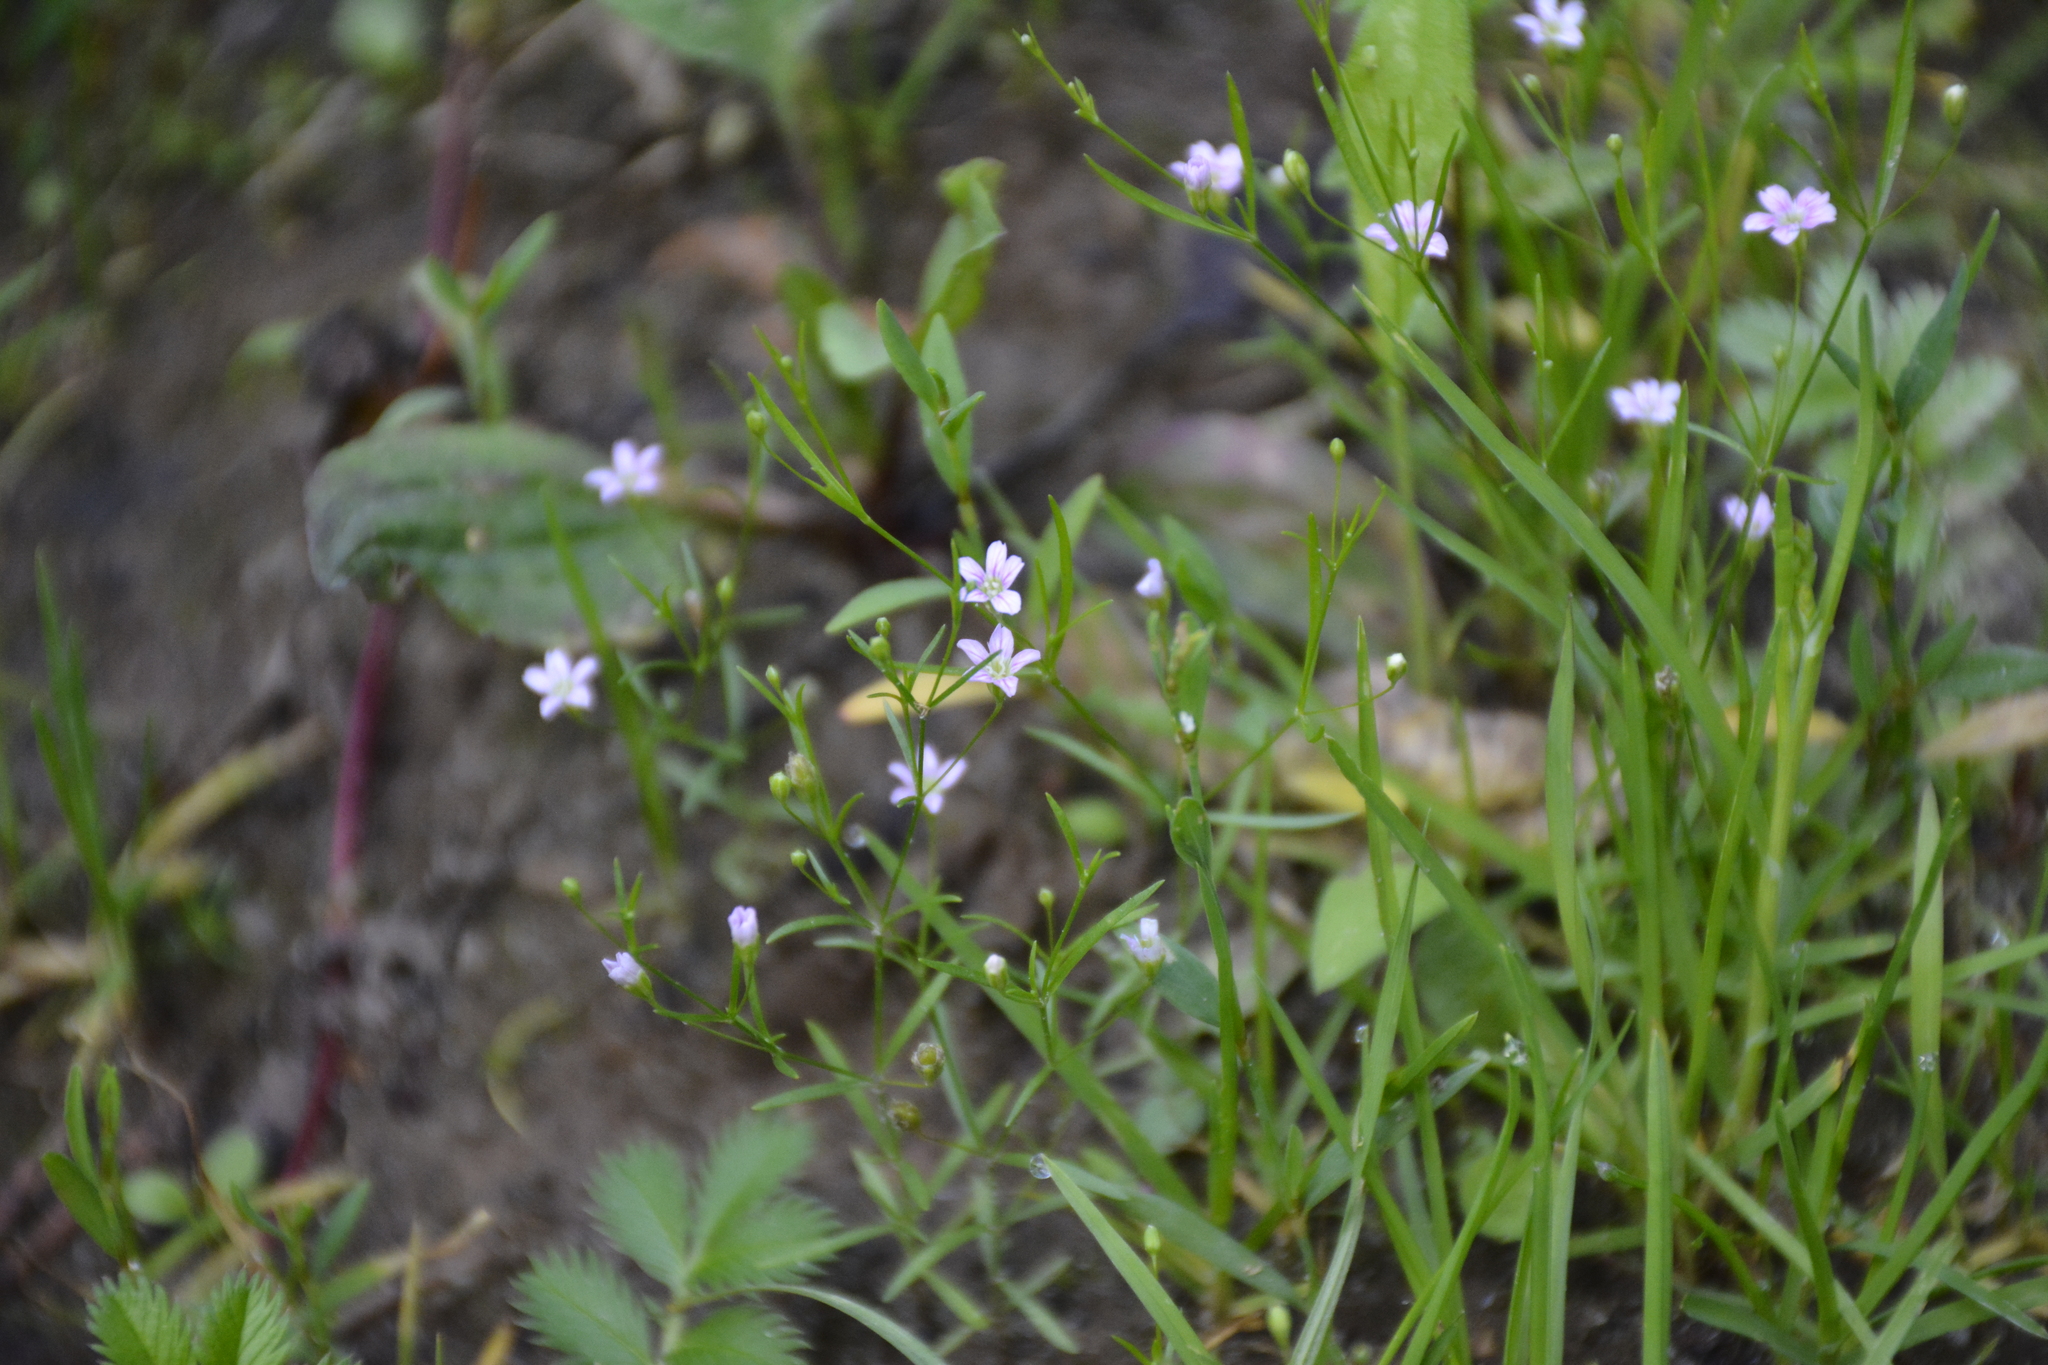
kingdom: Plantae
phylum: Tracheophyta
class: Magnoliopsida
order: Caryophyllales
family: Caryophyllaceae
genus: Psammophiliella
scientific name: Psammophiliella muralis
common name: Cushion baby's-breath
